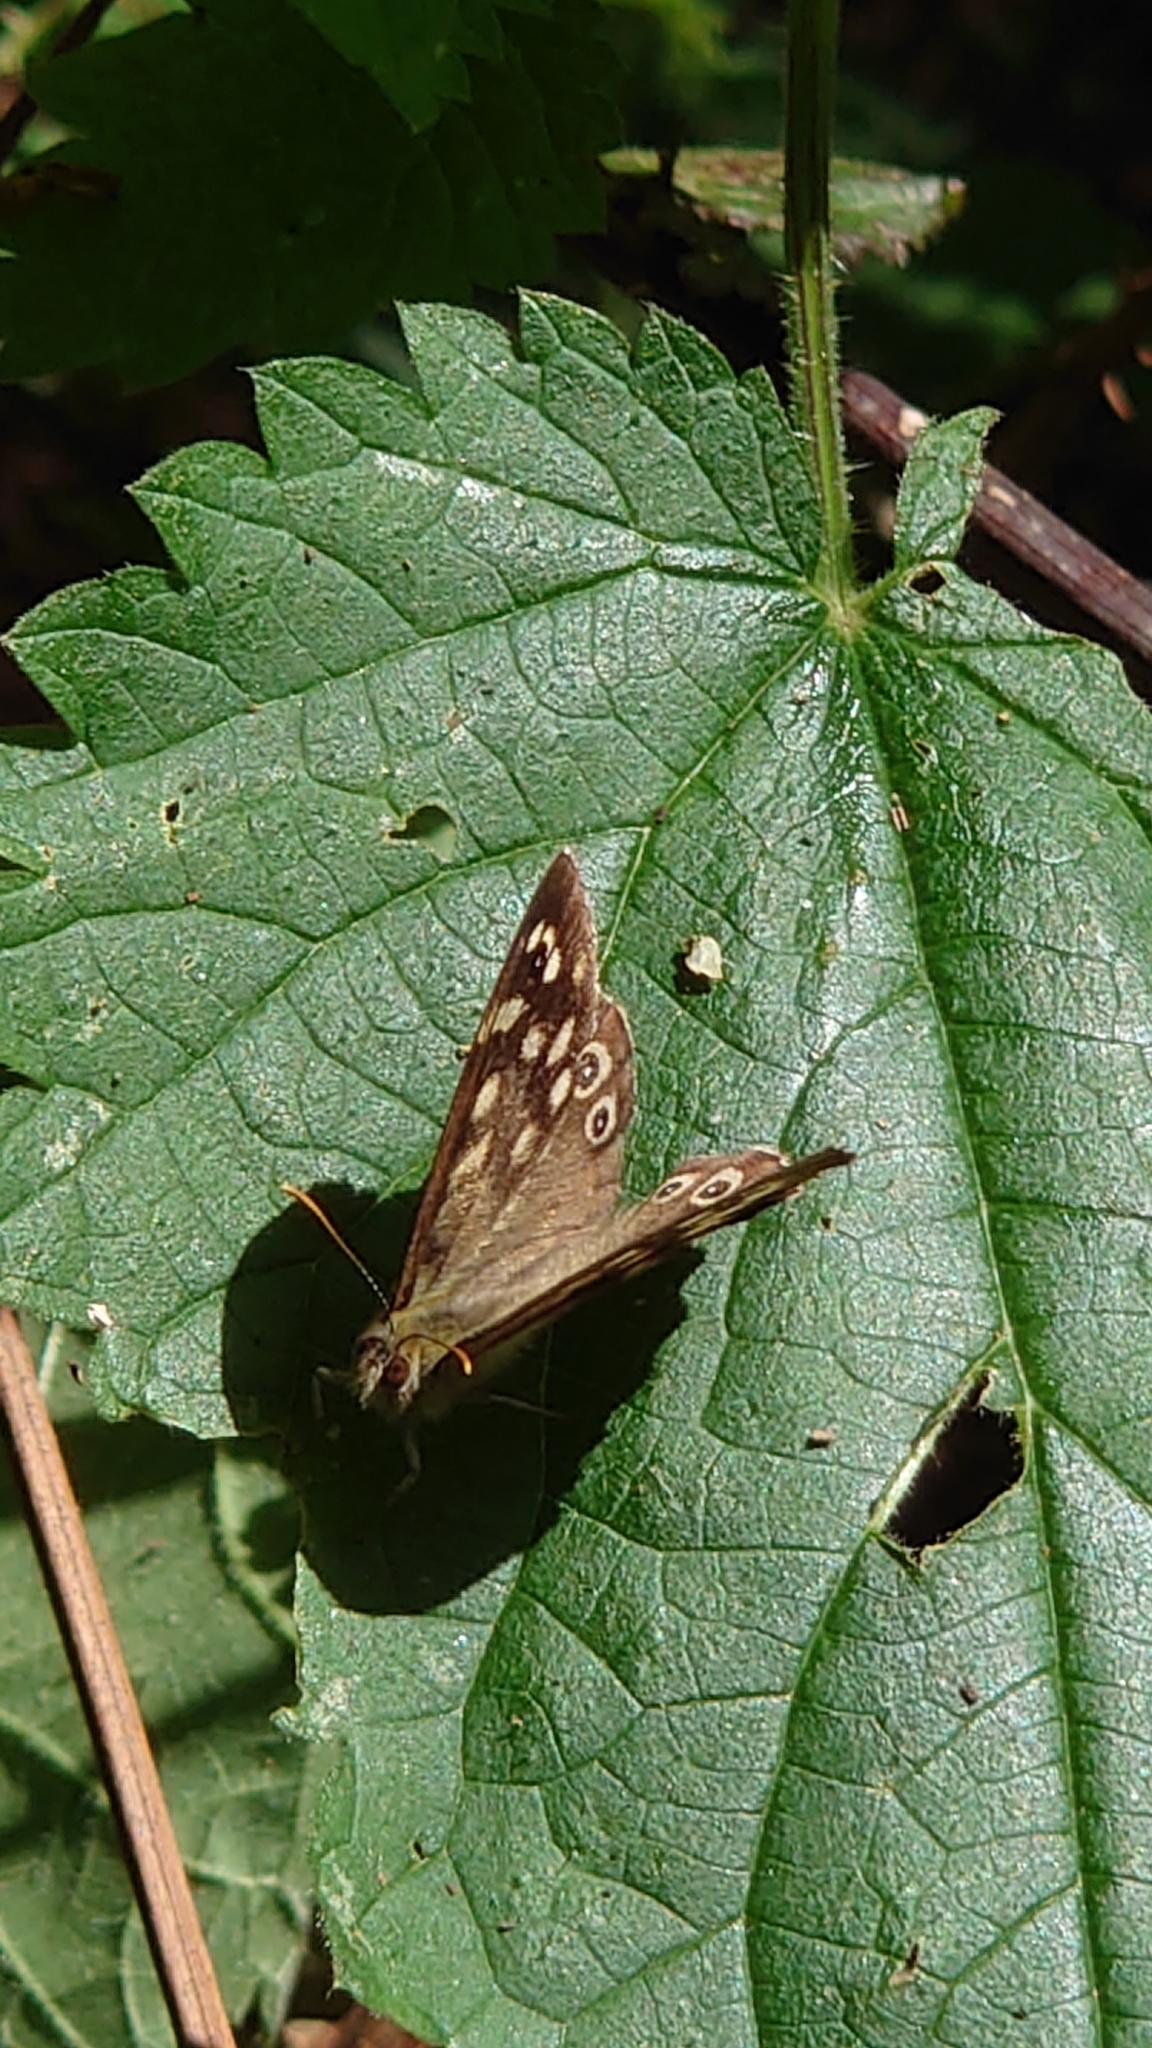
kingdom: Animalia
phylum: Arthropoda
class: Insecta
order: Lepidoptera
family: Nymphalidae
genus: Pararge
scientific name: Pararge aegeria
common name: Speckled wood
